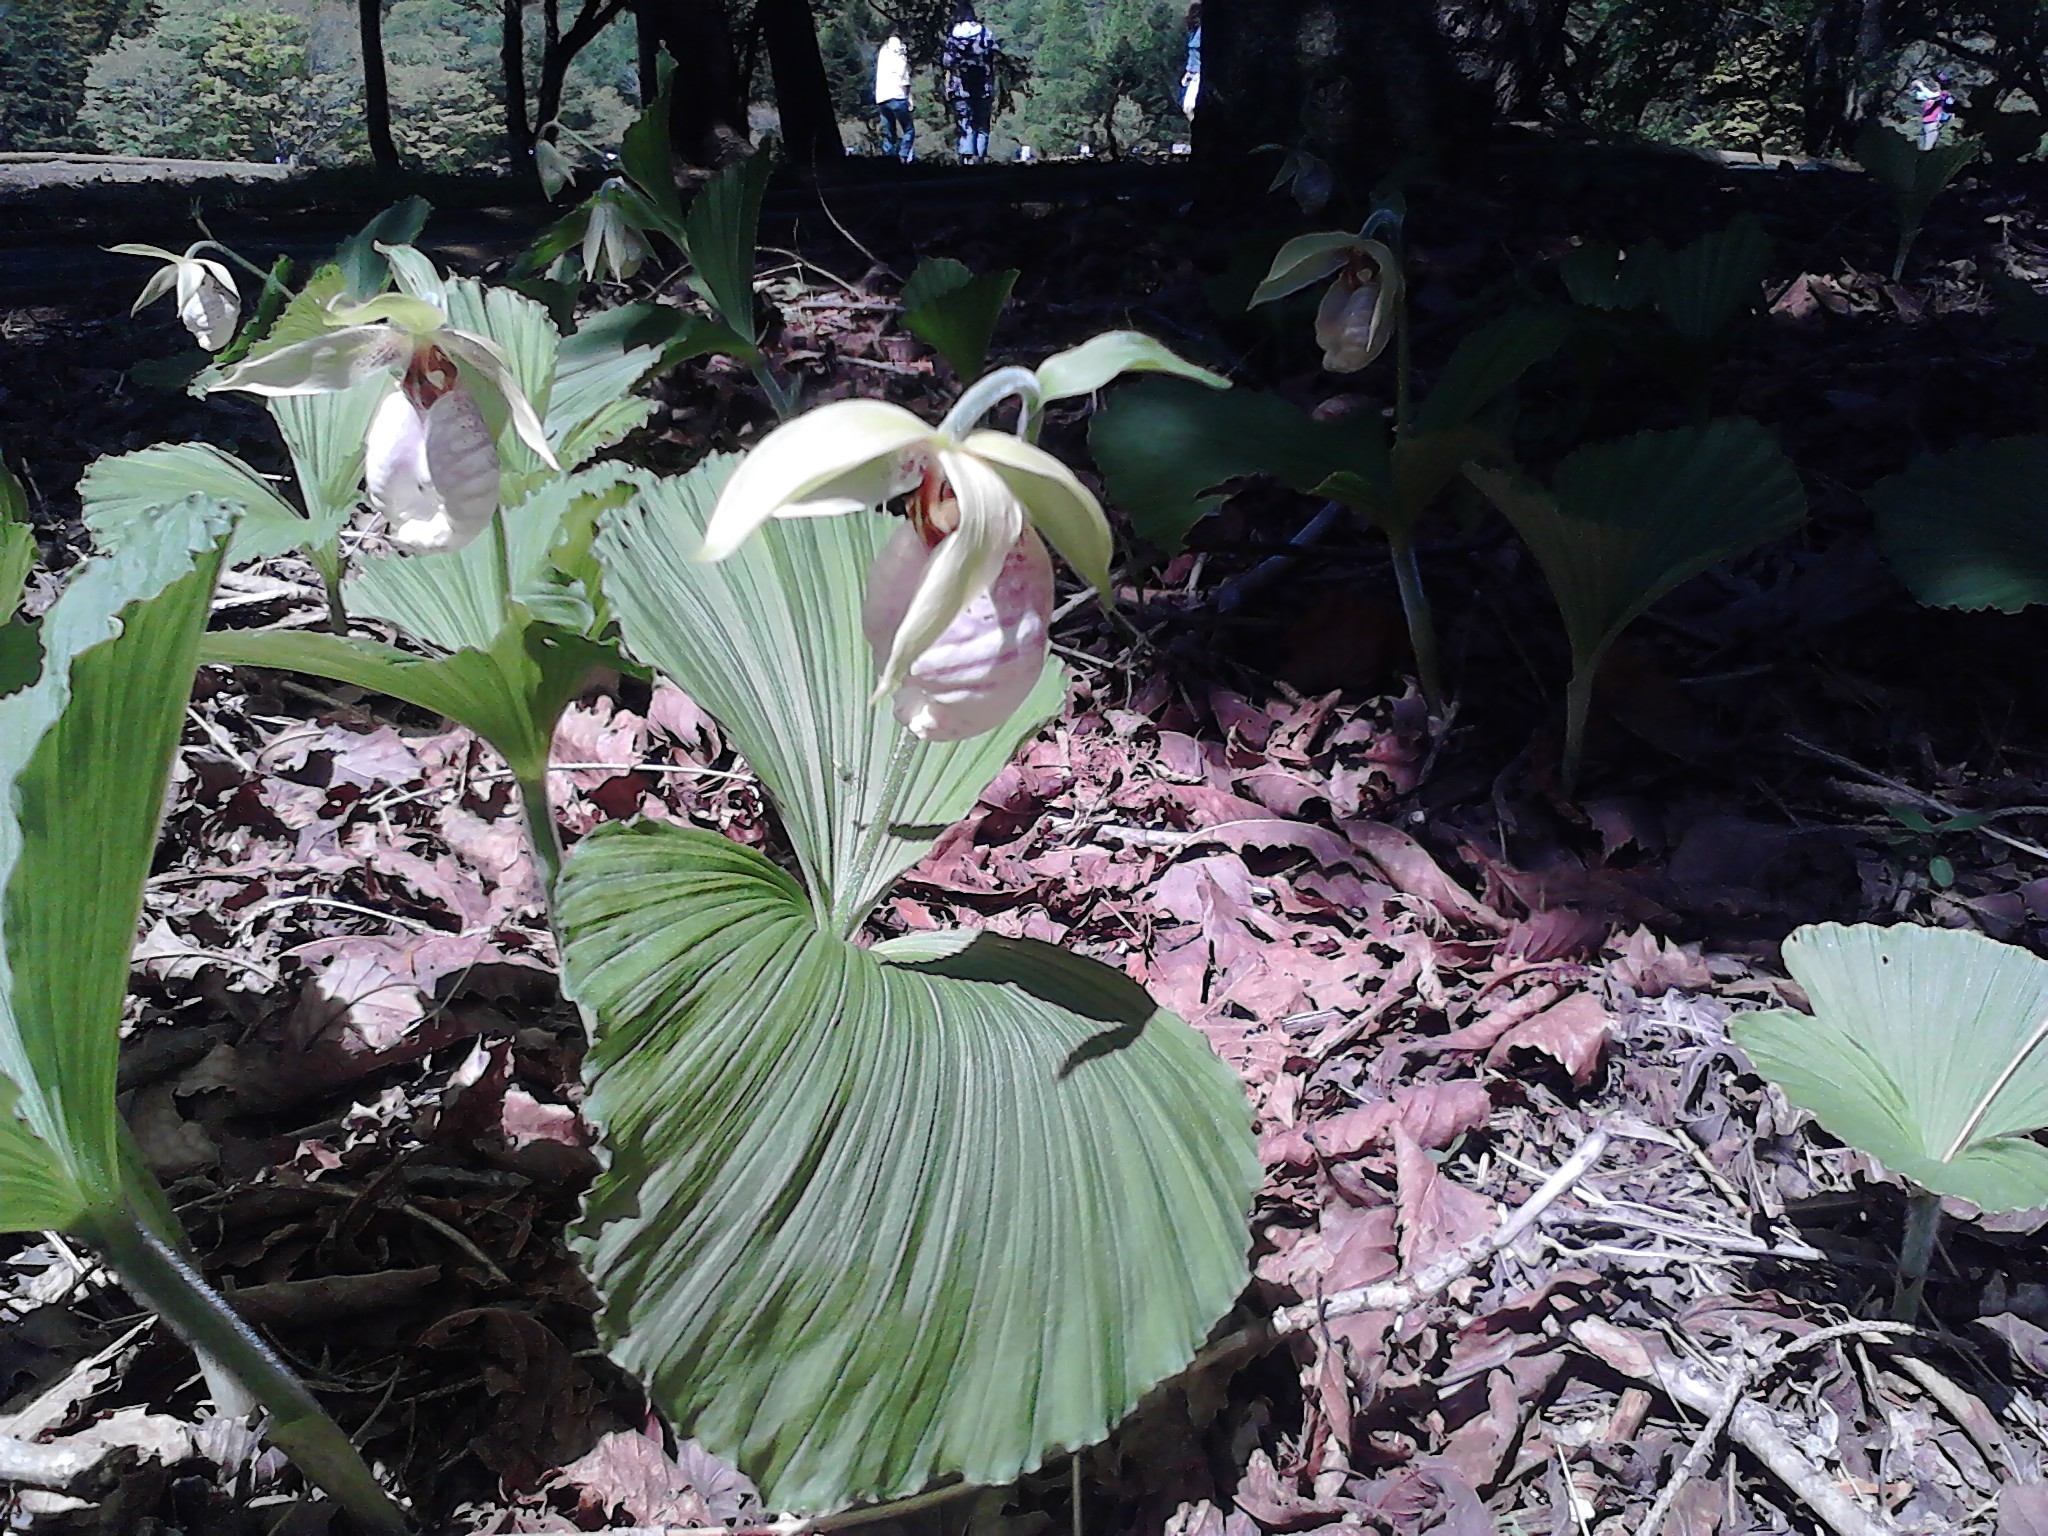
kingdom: Plantae
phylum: Tracheophyta
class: Liliopsida
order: Asparagales
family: Orchidaceae
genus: Cypripedium
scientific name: Cypripedium japonicum
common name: Japanese ladyslipper
